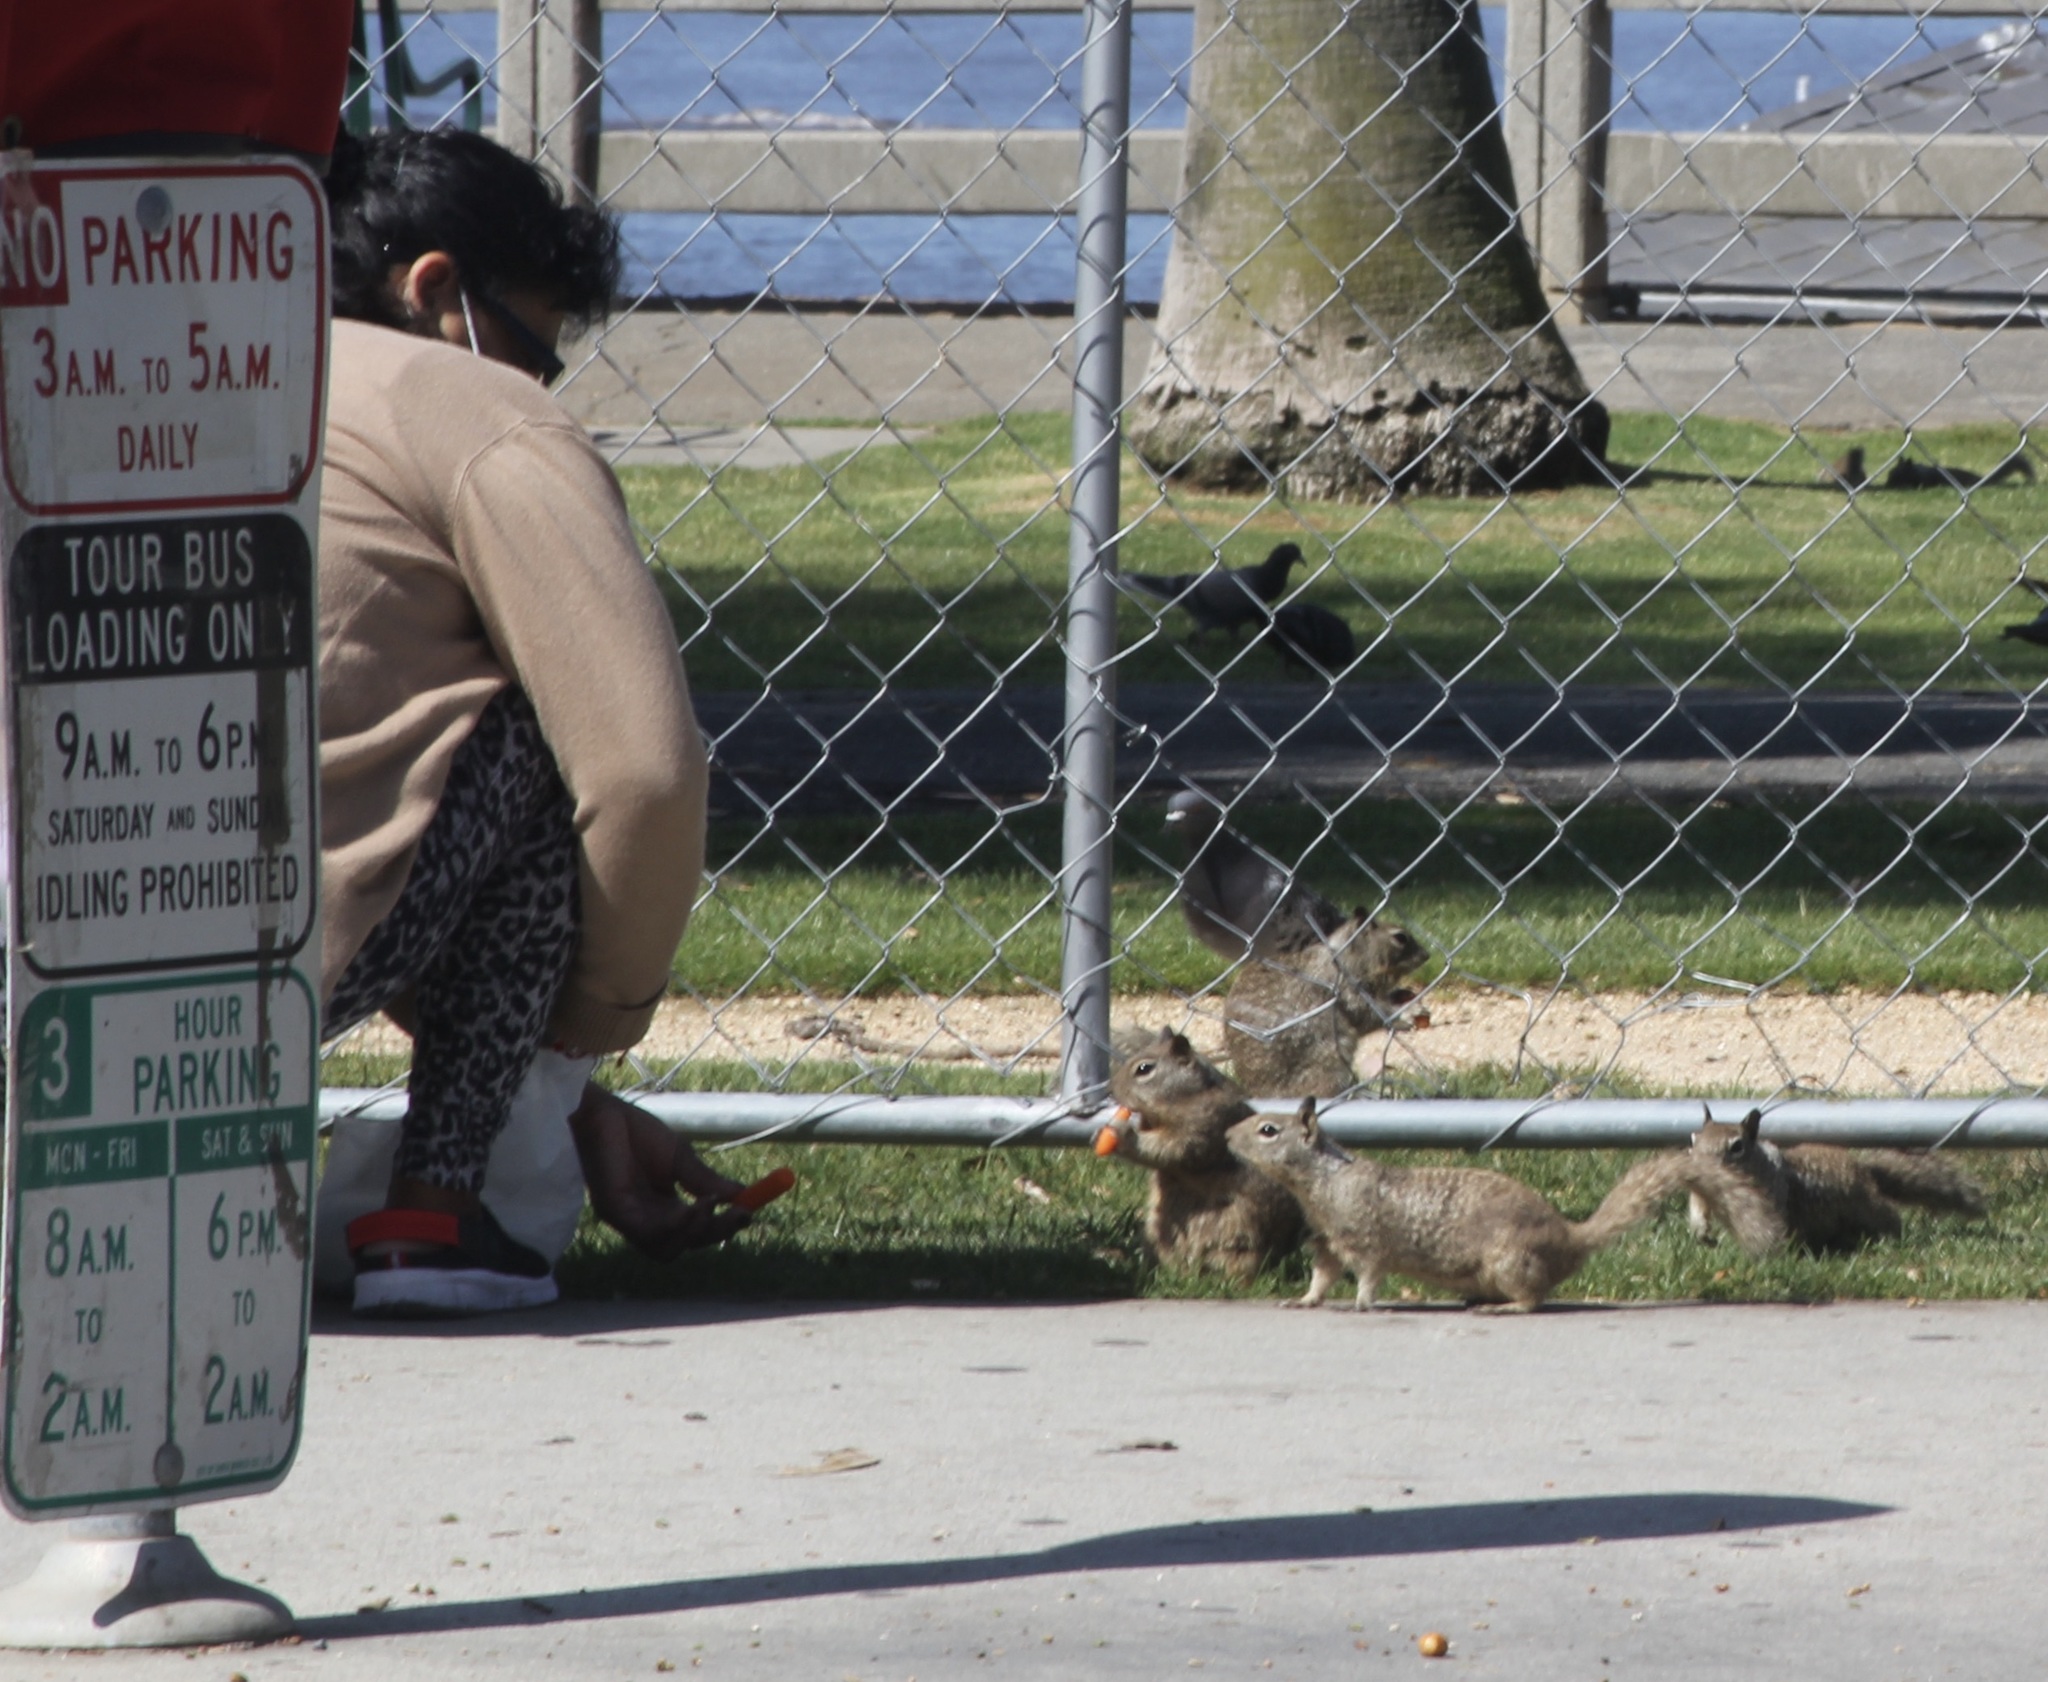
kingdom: Animalia
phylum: Chordata
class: Mammalia
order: Rodentia
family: Sciuridae
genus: Otospermophilus
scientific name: Otospermophilus beecheyi
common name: California ground squirrel
